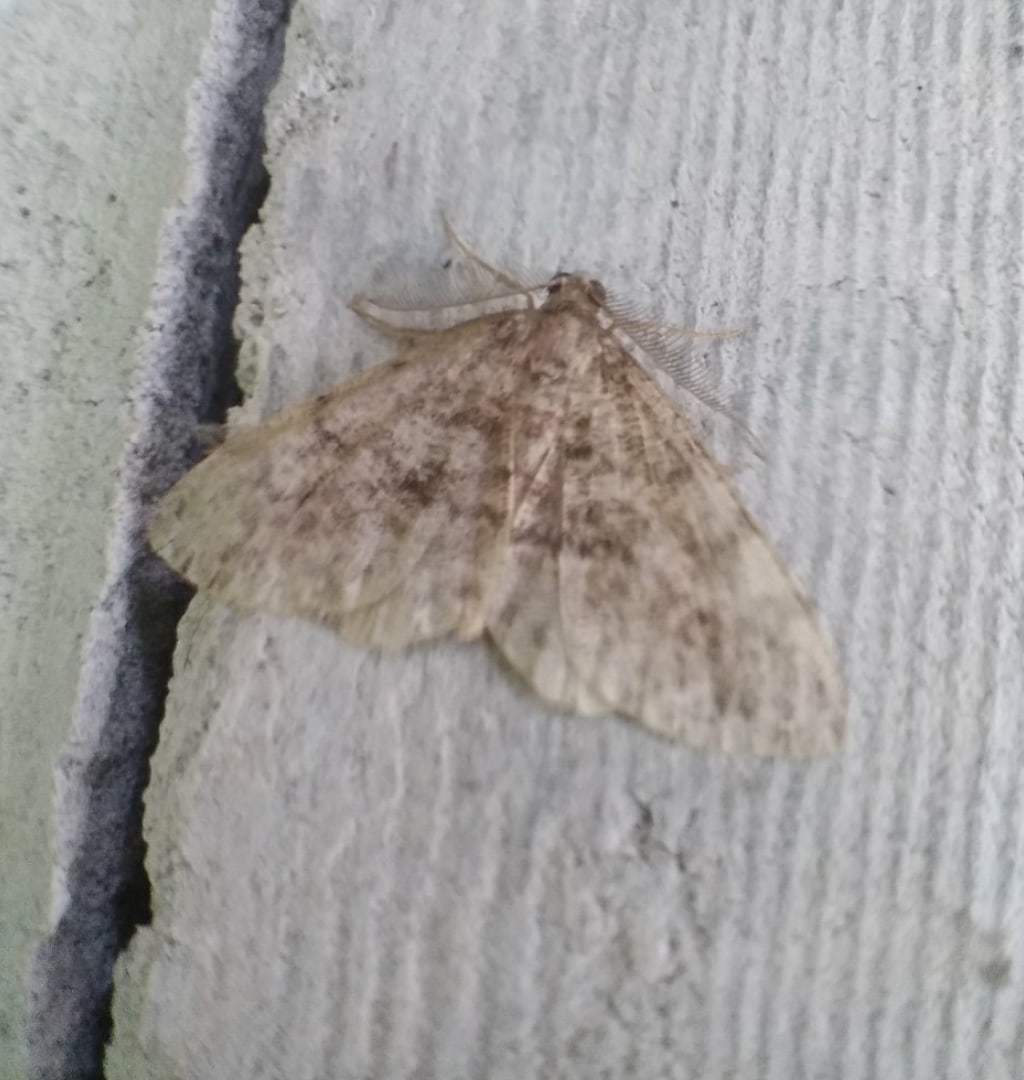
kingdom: Animalia
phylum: Arthropoda
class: Insecta
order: Lepidoptera
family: Geometridae
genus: Deileptenia
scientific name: Deileptenia ribeata
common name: Satin beauty
